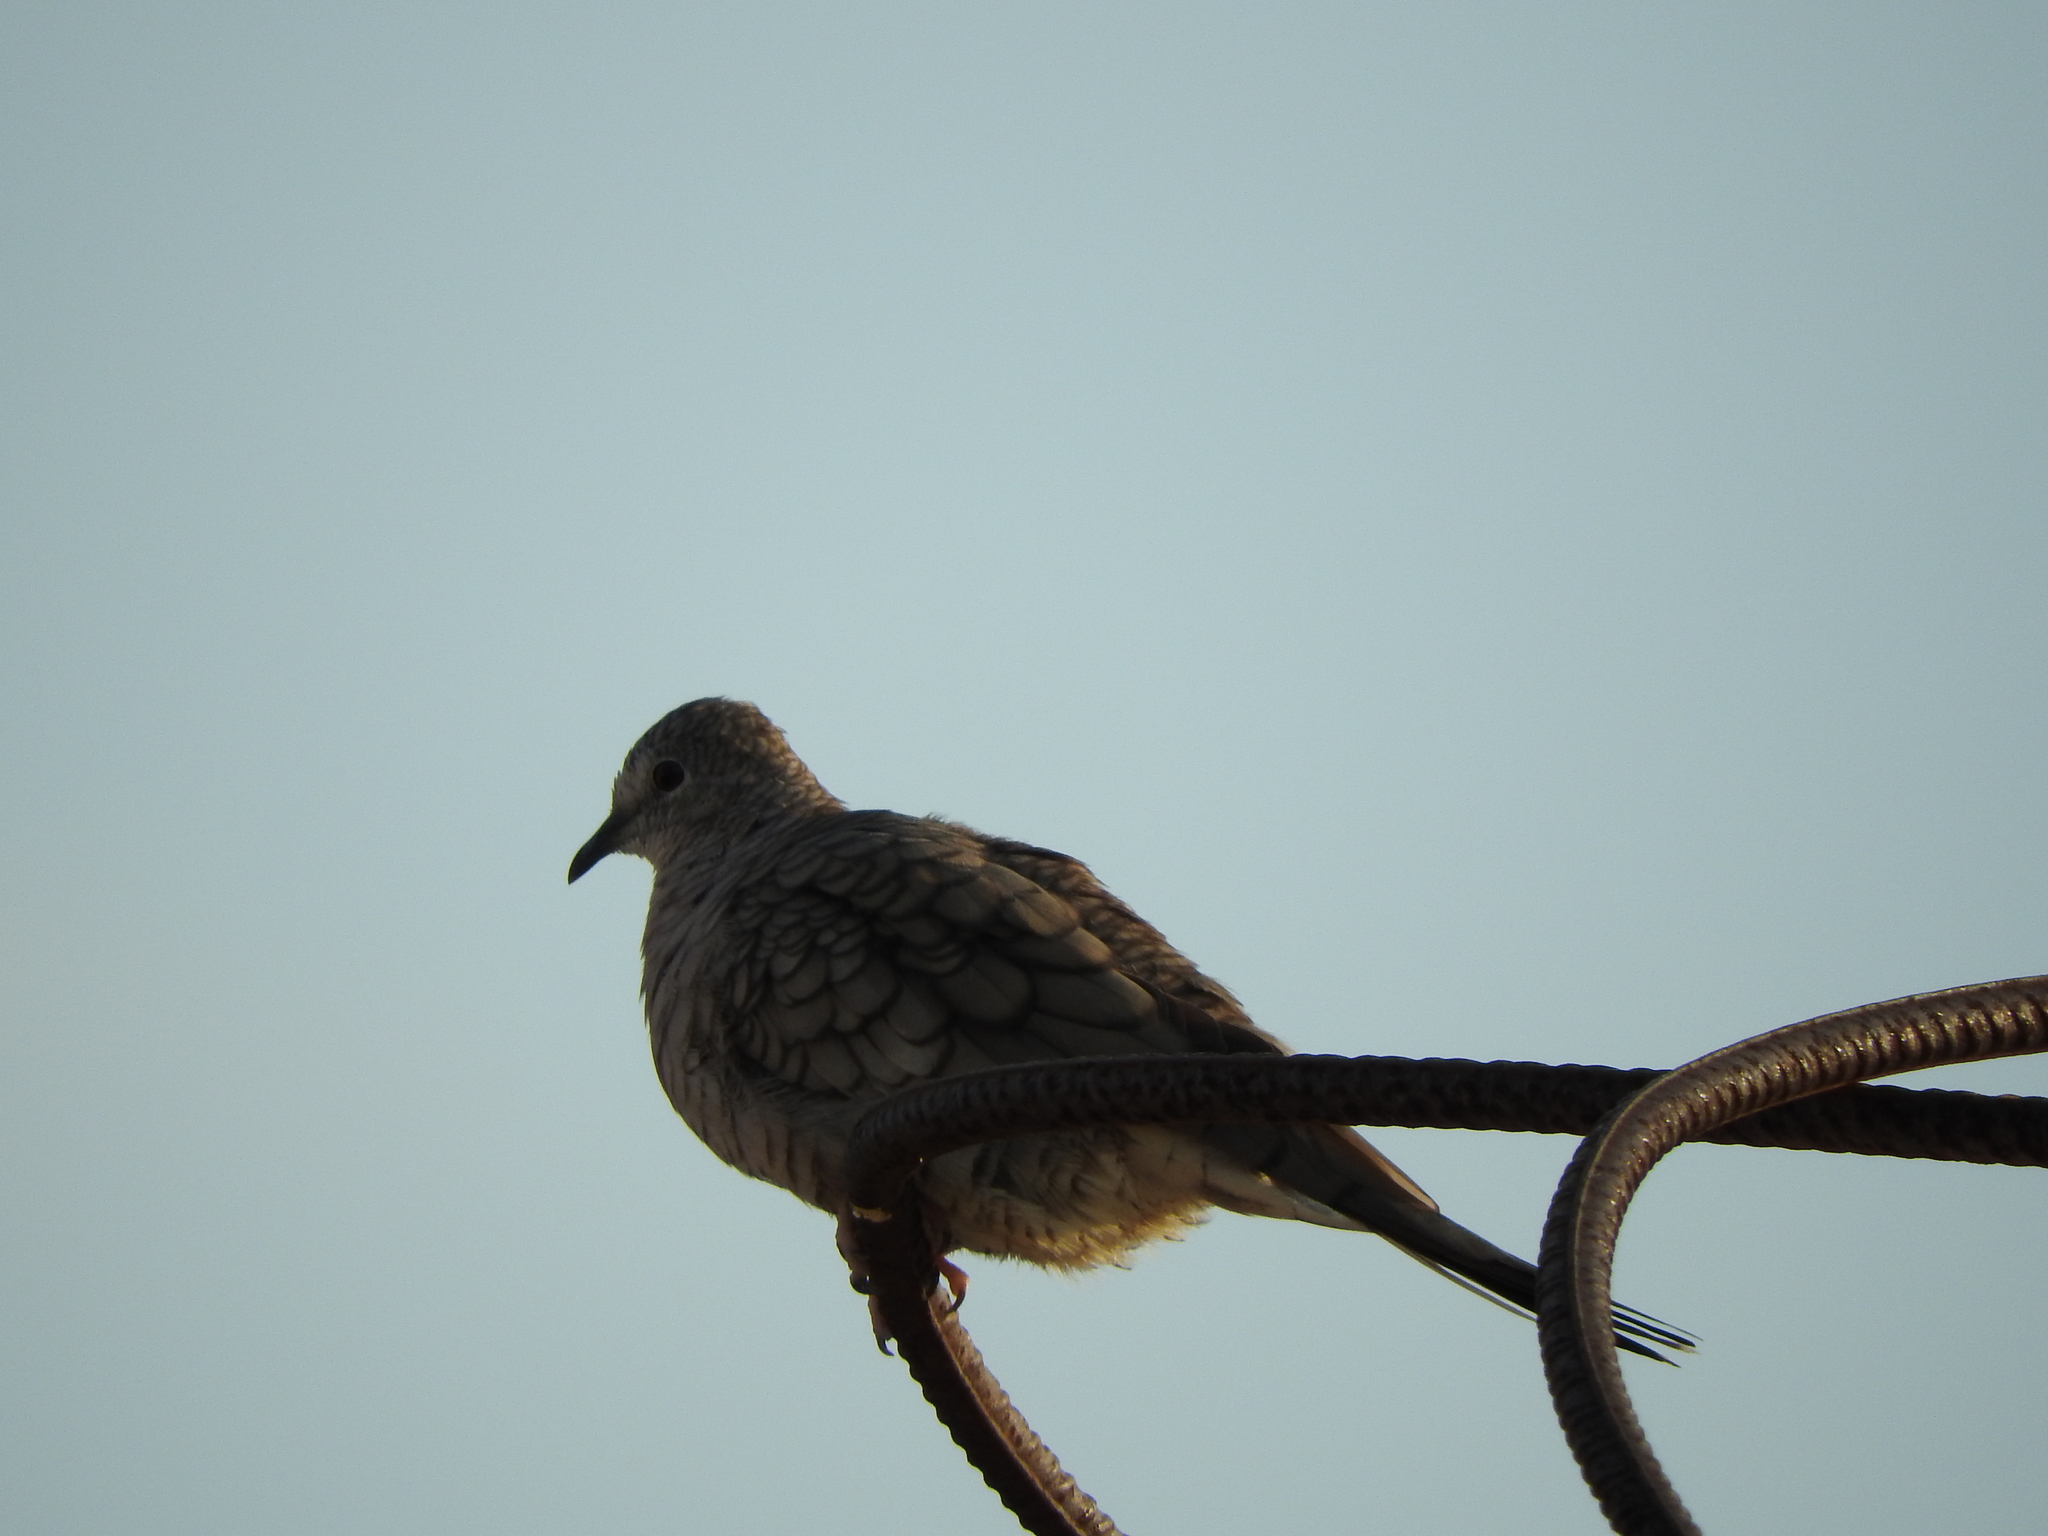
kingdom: Animalia
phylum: Chordata
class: Aves
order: Columbiformes
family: Columbidae
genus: Columbina
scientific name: Columbina inca
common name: Inca dove
